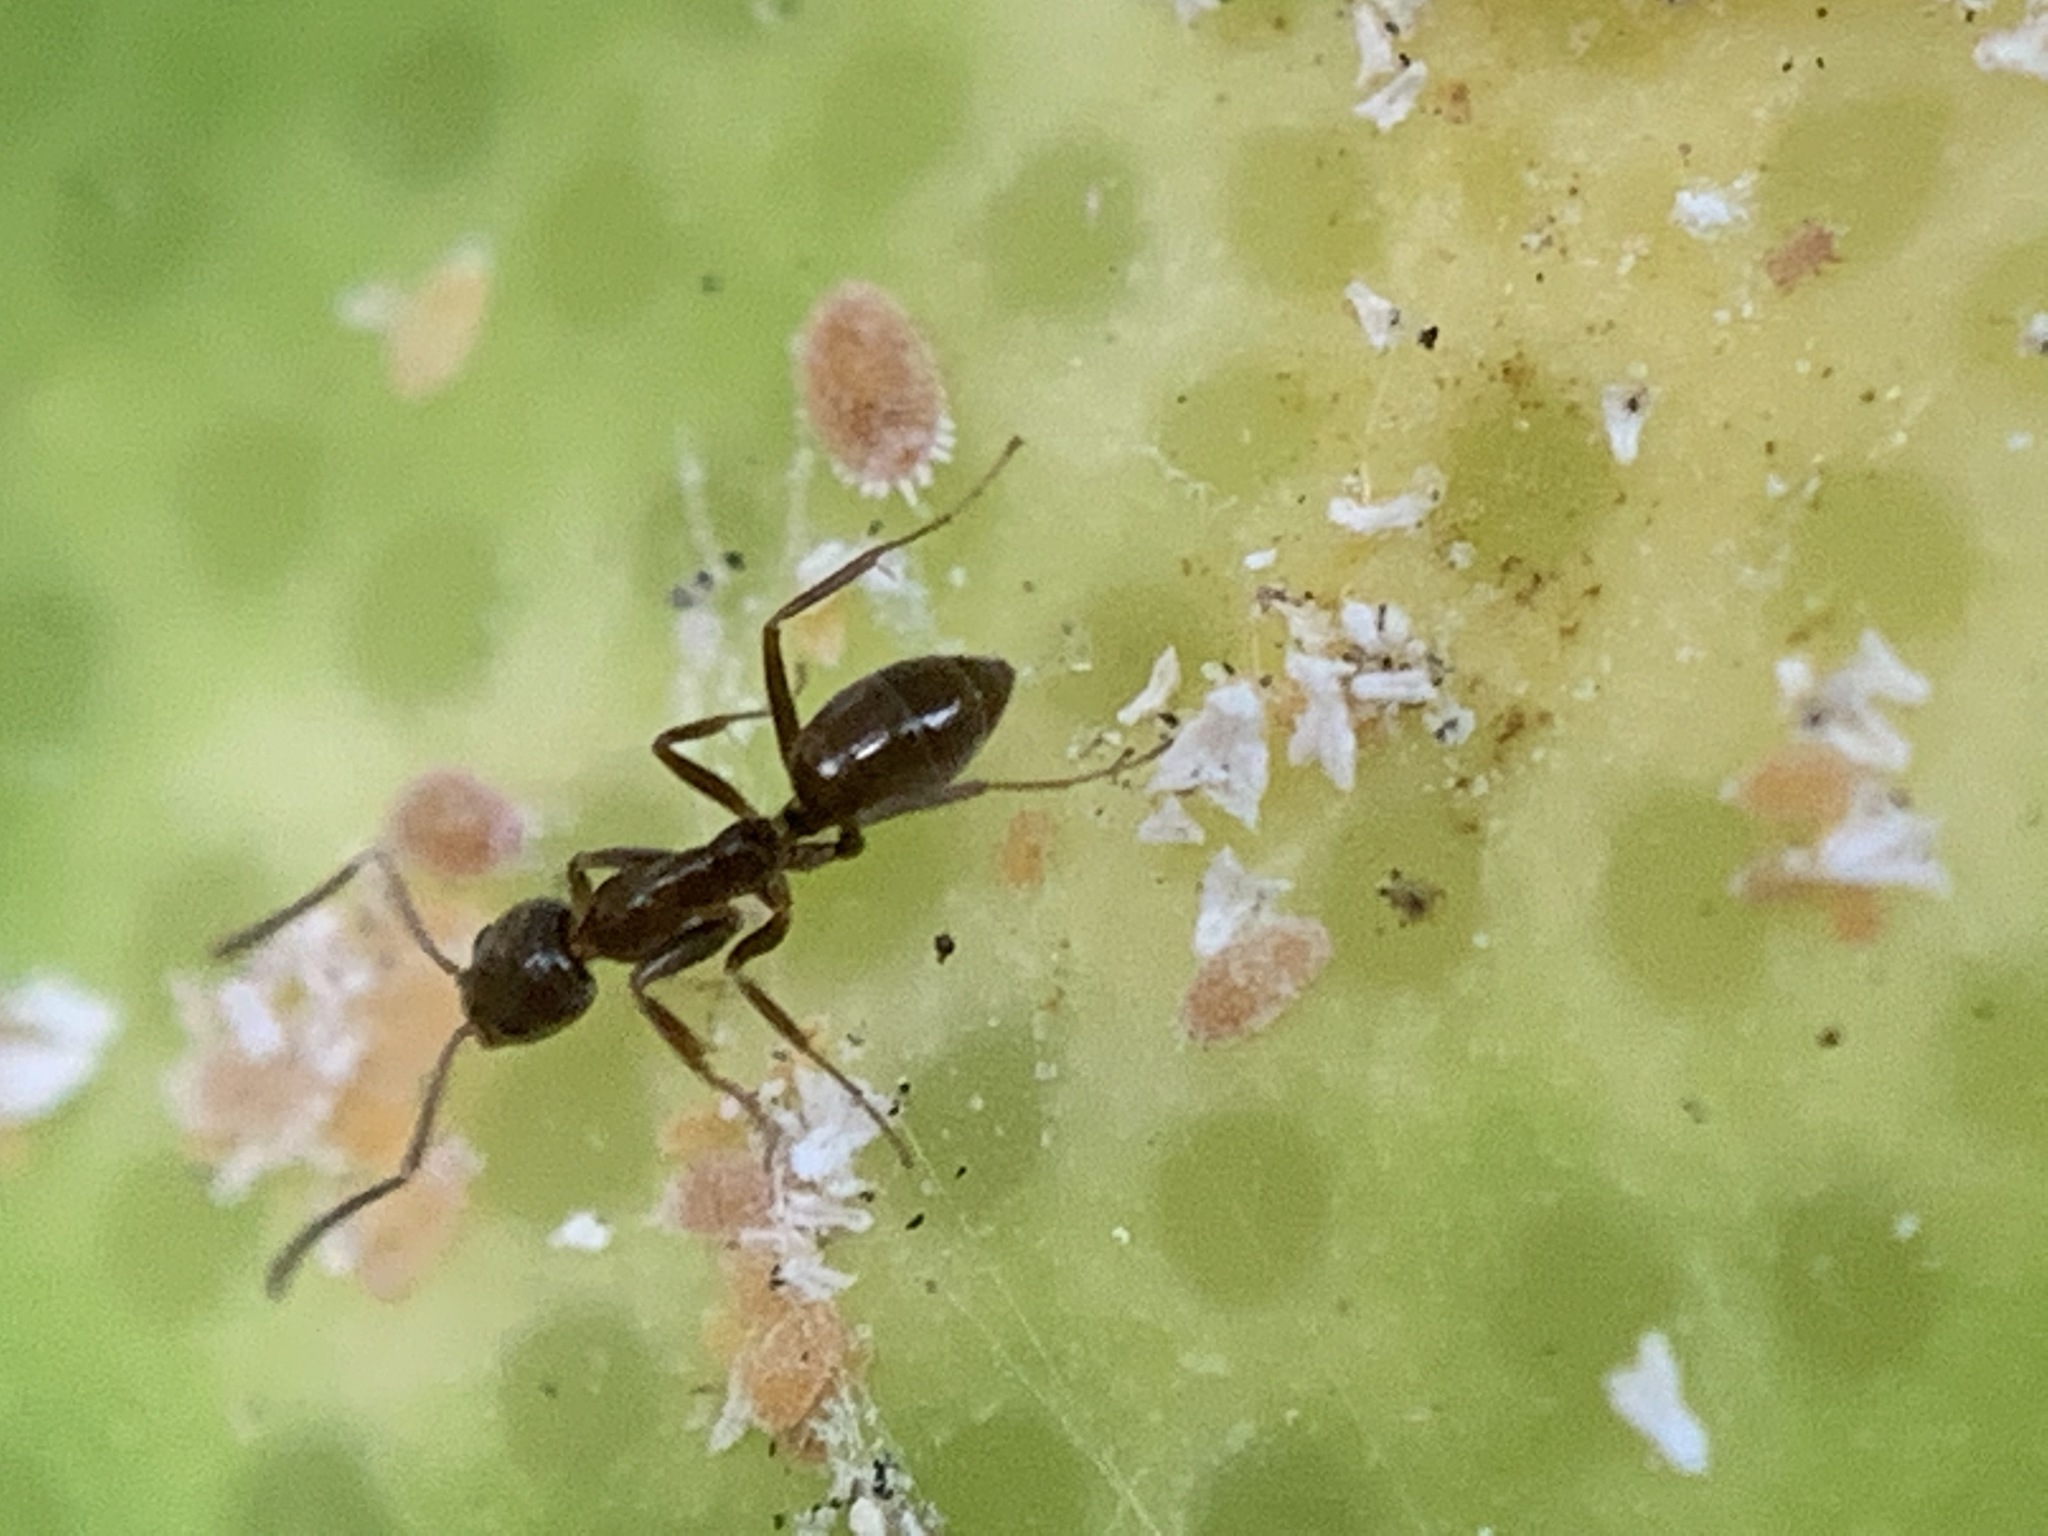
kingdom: Animalia
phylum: Arthropoda
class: Insecta
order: Hymenoptera
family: Formicidae
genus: Linepithema
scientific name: Linepithema humile
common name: Argentine ant
